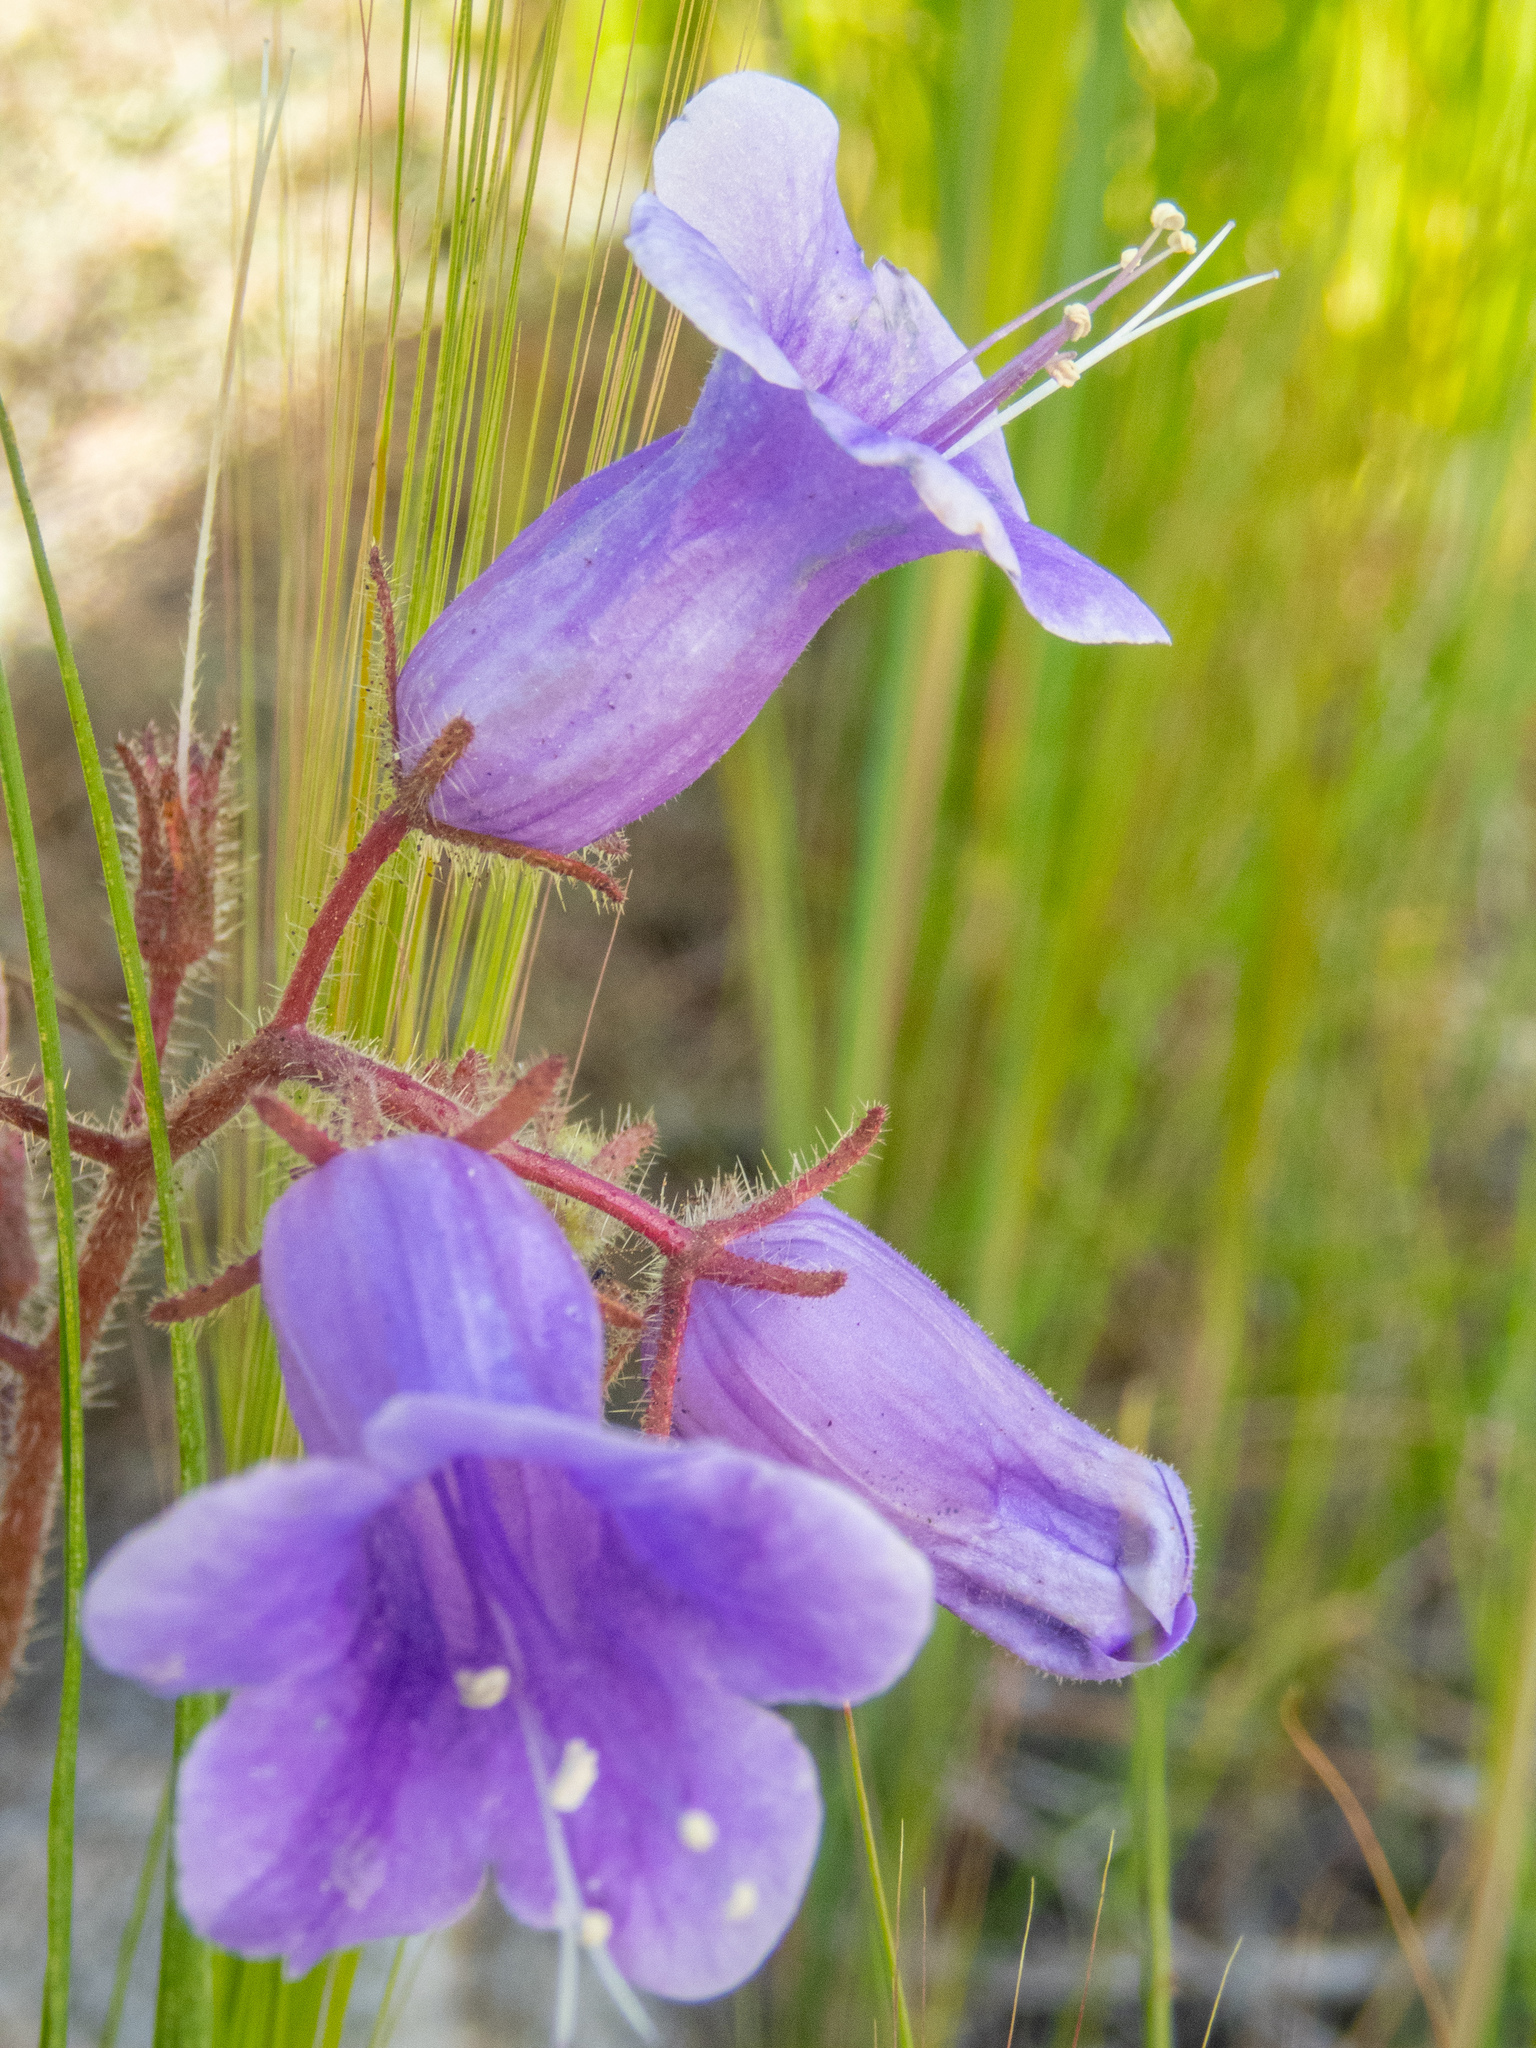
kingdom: Plantae
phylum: Tracheophyta
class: Magnoliopsida
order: Boraginales
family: Hydrophyllaceae
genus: Phacelia
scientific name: Phacelia minor
